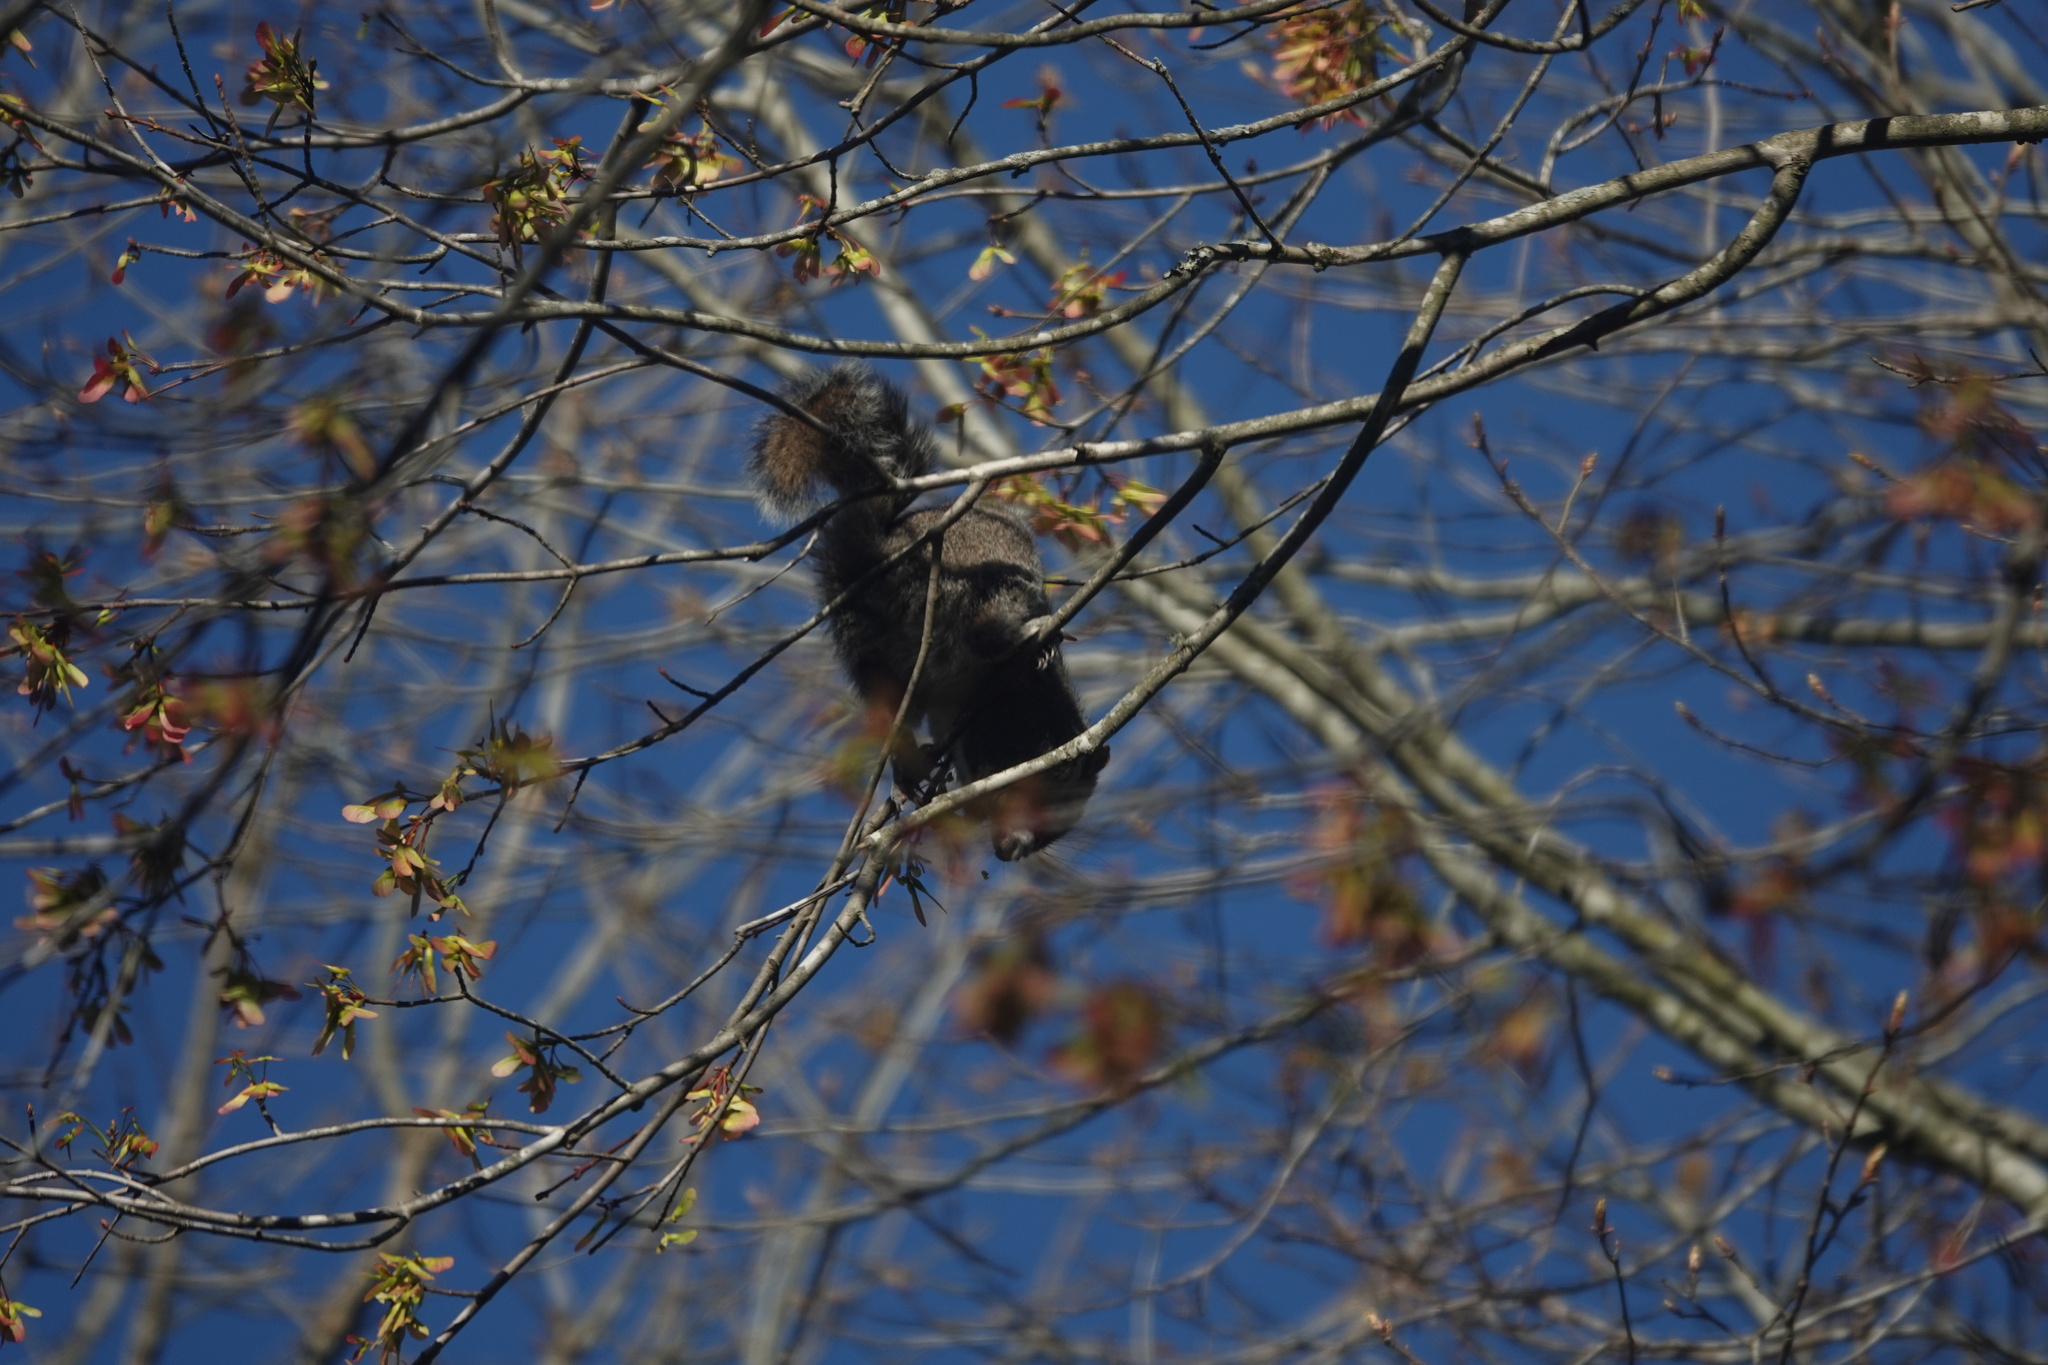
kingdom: Animalia
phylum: Chordata
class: Mammalia
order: Rodentia
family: Sciuridae
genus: Sciurus
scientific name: Sciurus carolinensis
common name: Eastern gray squirrel
